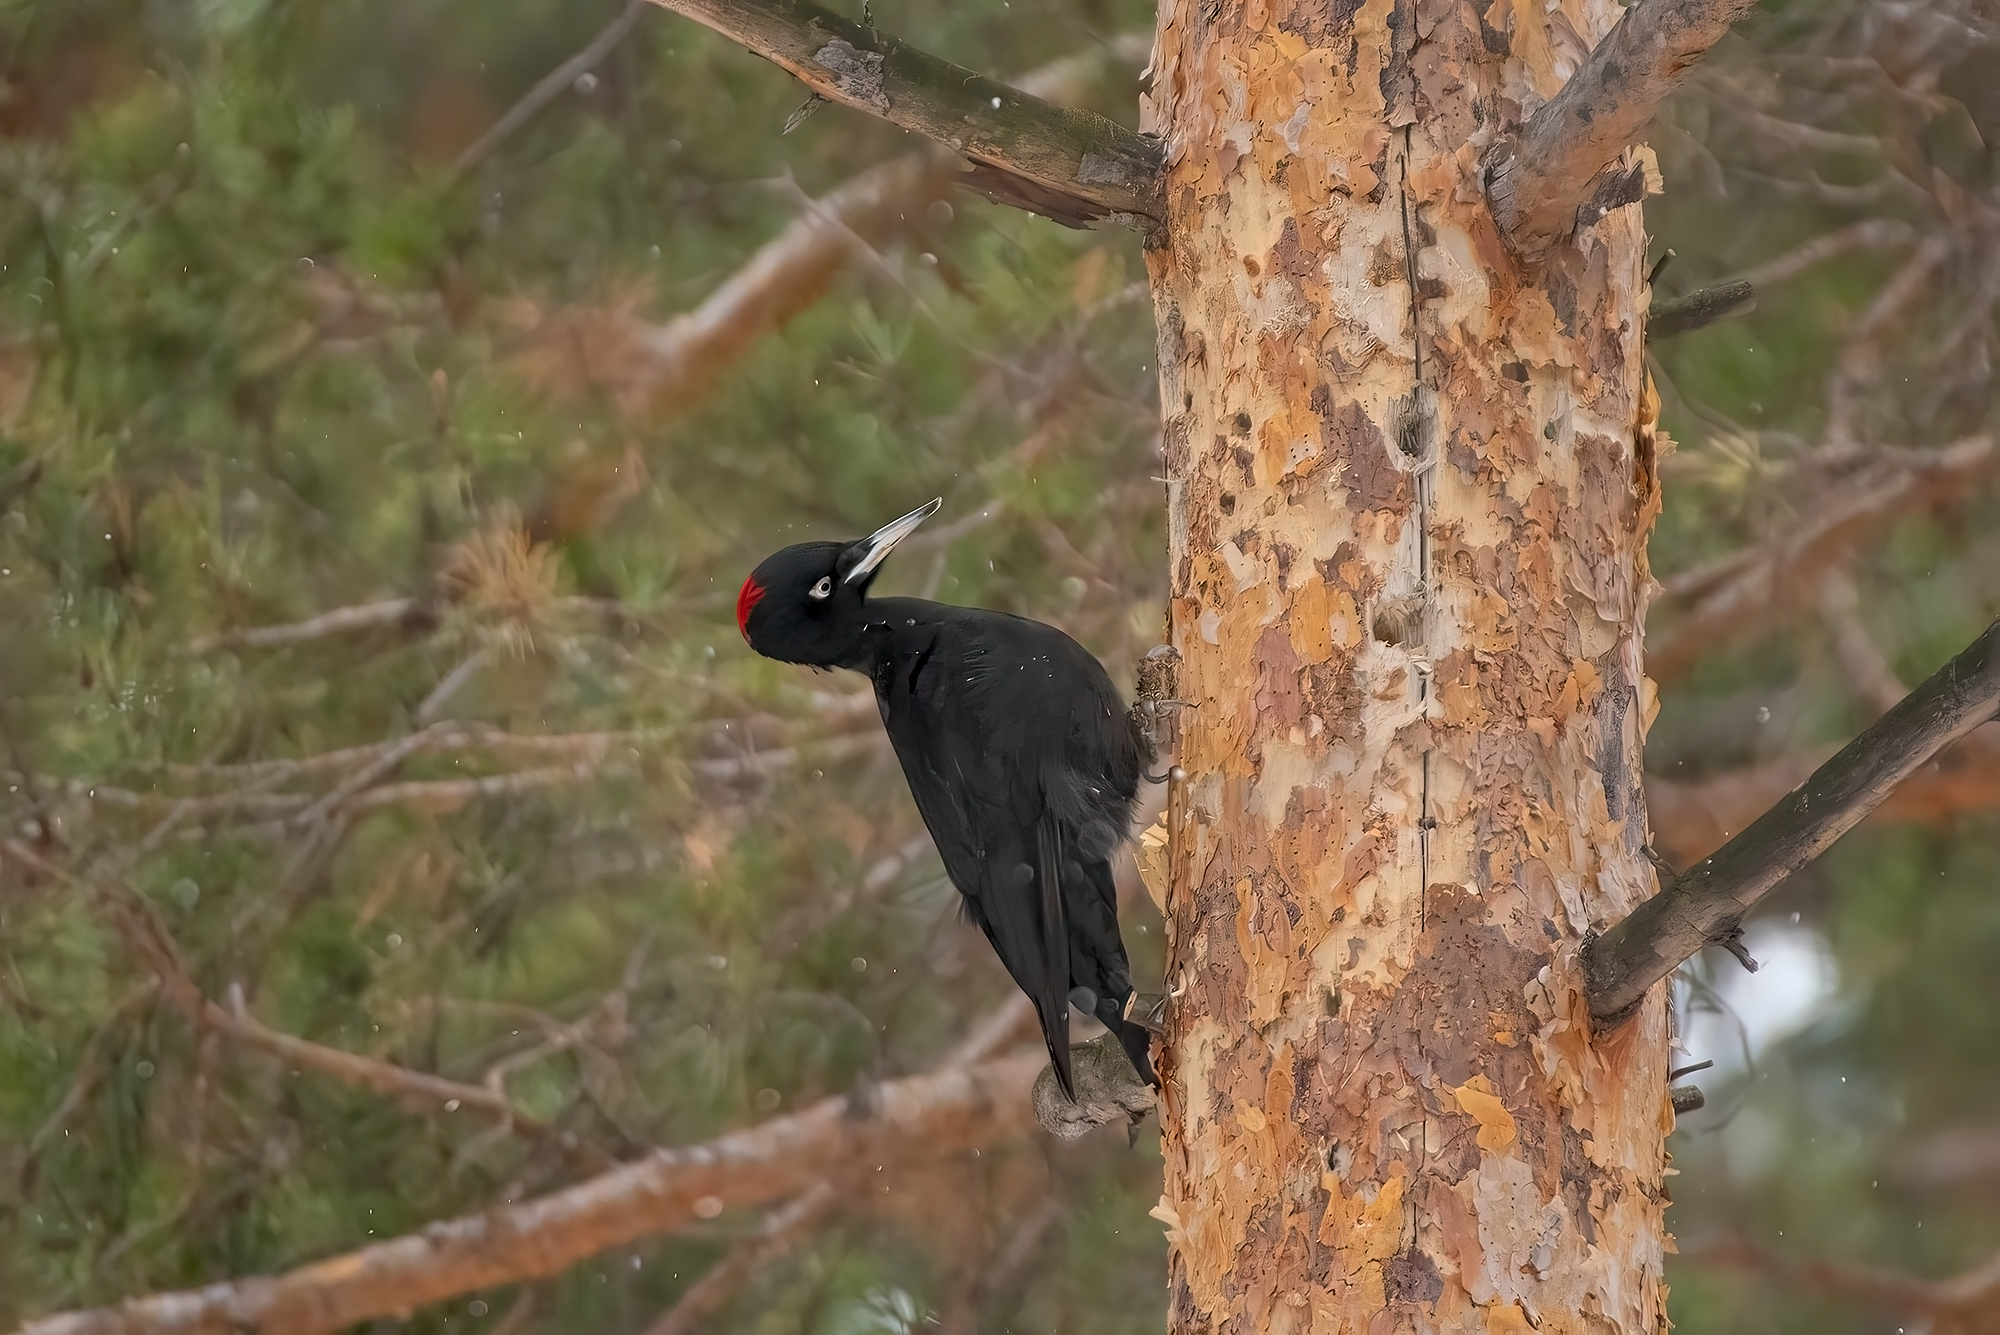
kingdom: Animalia
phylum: Chordata
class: Aves
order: Piciformes
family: Picidae
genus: Dryocopus
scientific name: Dryocopus martius
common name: Black woodpecker
